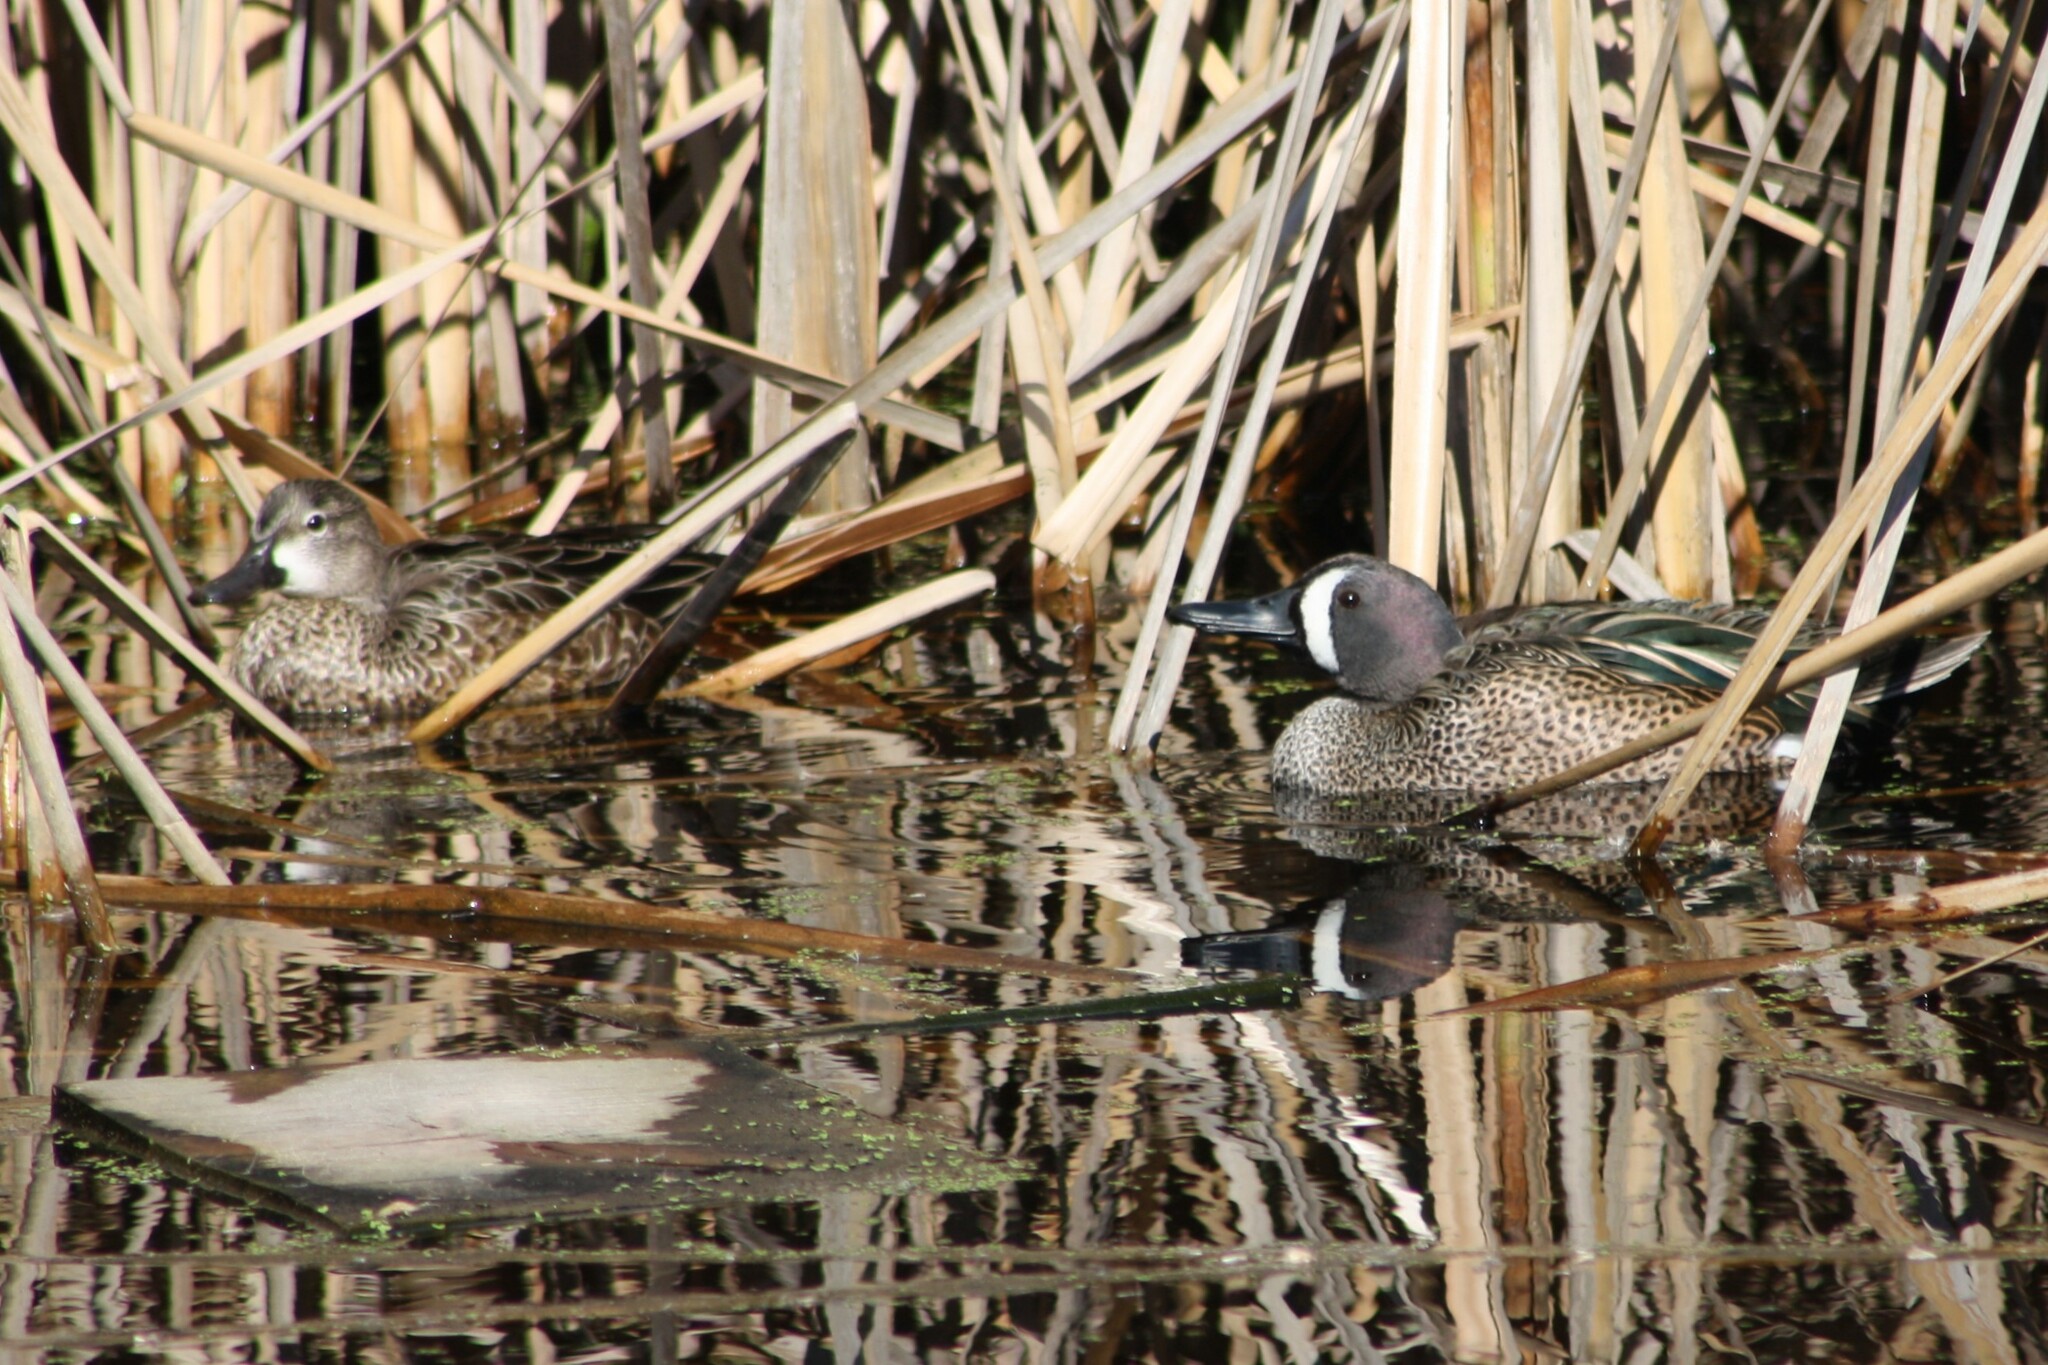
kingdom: Animalia
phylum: Chordata
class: Aves
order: Anseriformes
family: Anatidae
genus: Spatula
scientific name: Spatula discors
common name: Blue-winged teal
